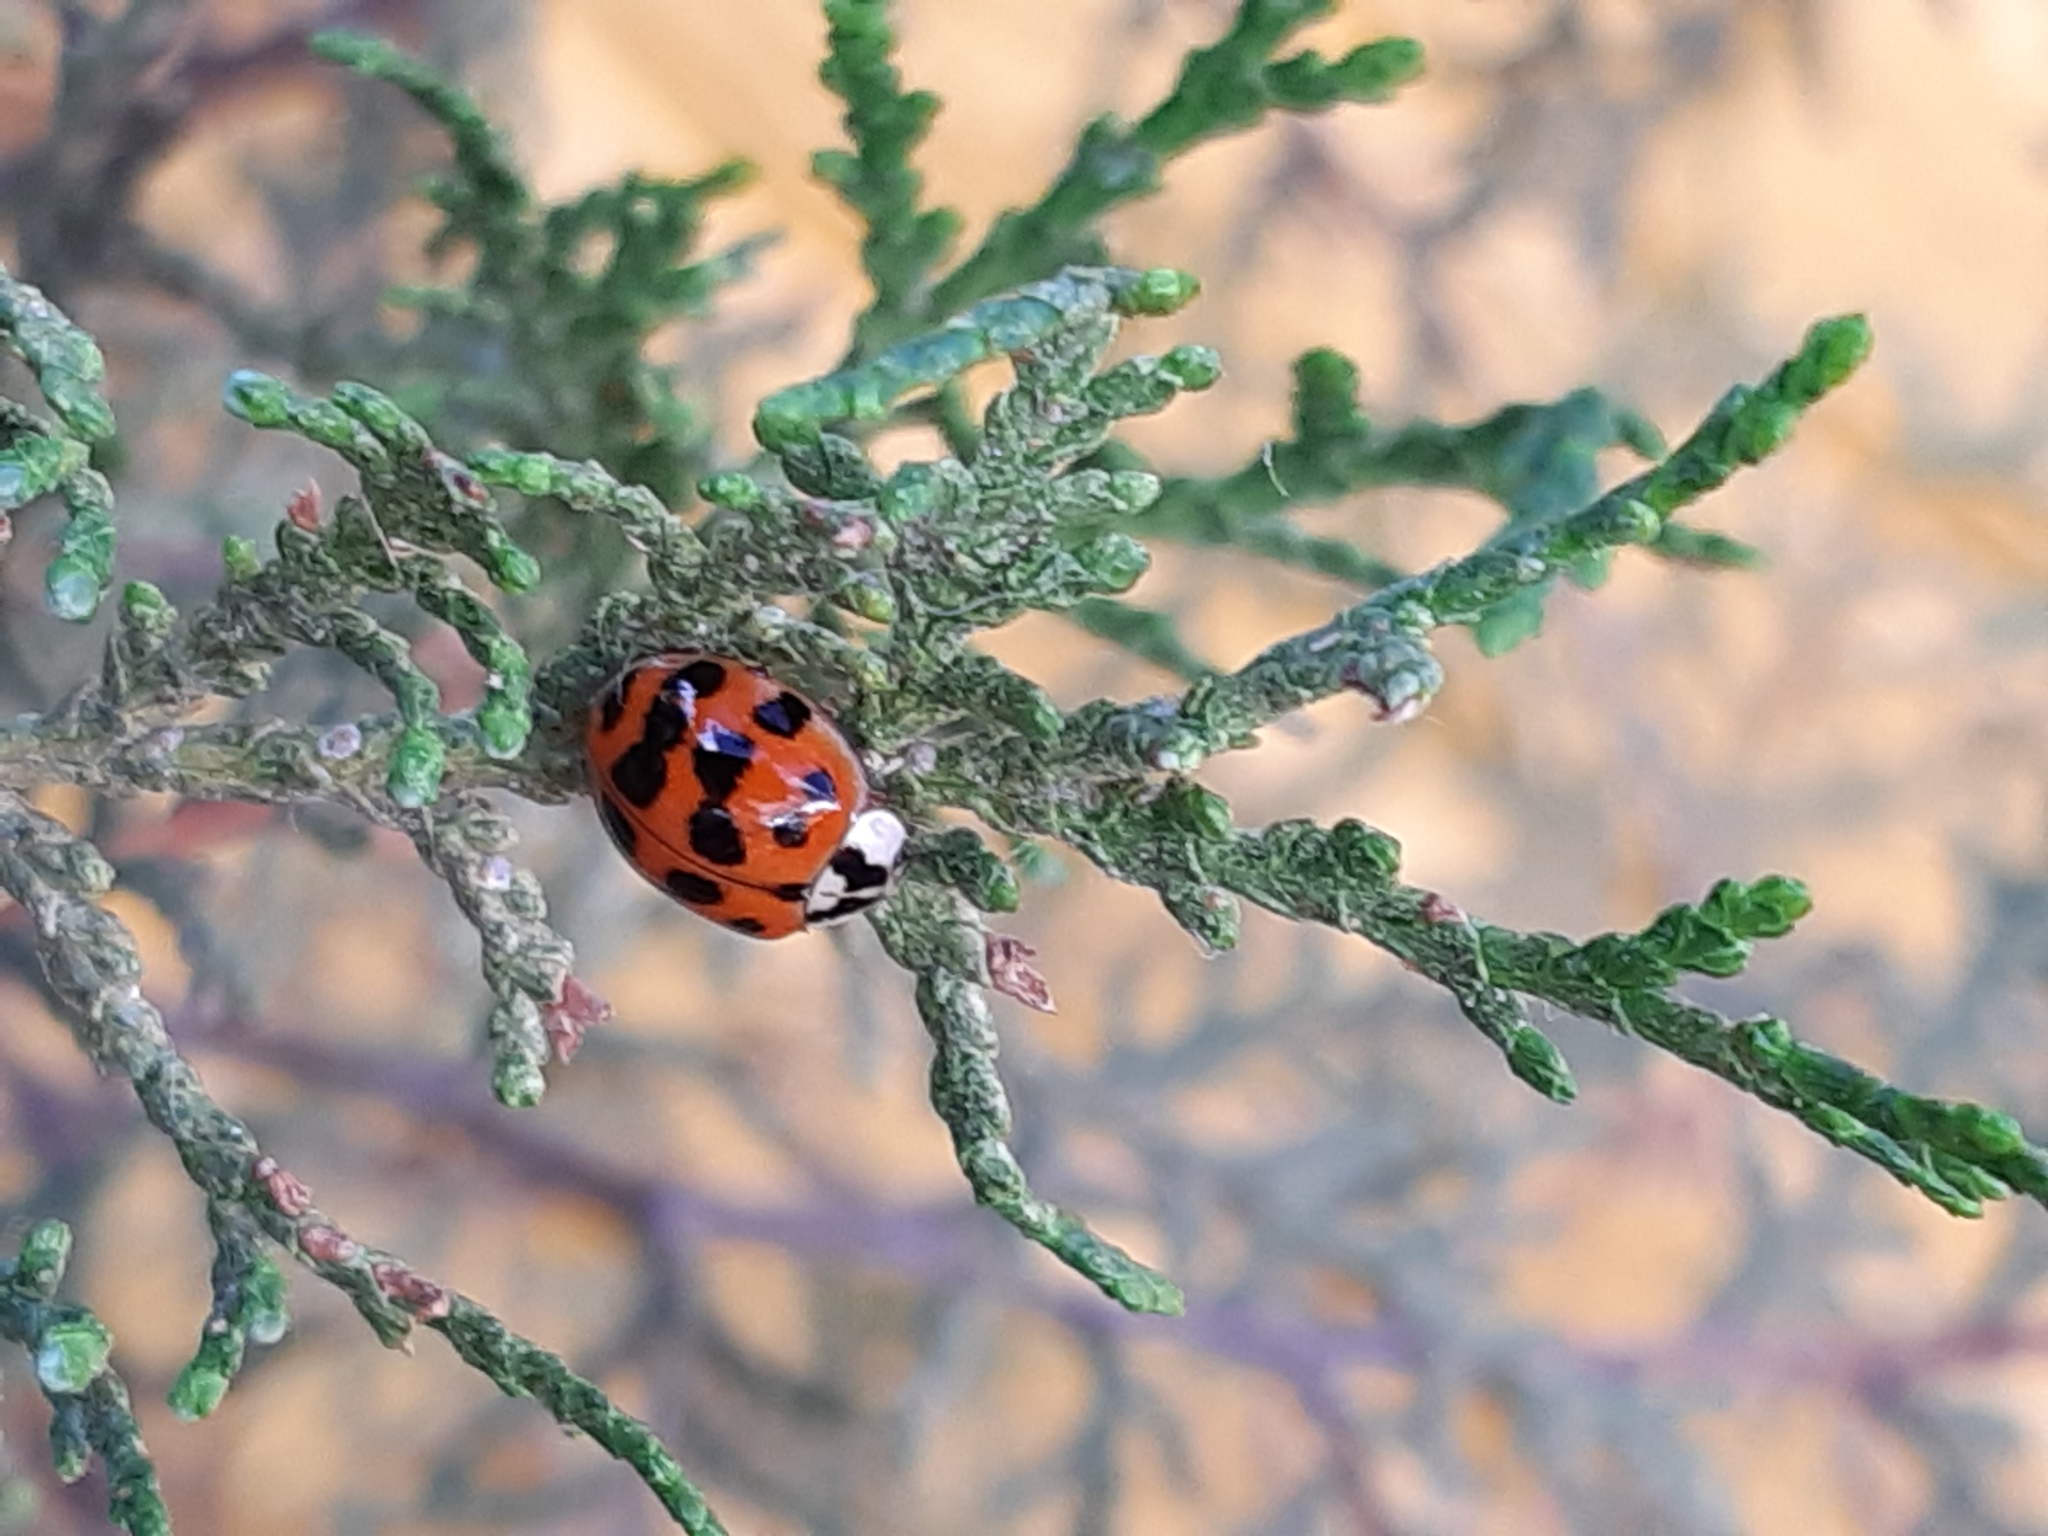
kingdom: Animalia
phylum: Arthropoda
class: Insecta
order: Coleoptera
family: Coccinellidae
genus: Harmonia
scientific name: Harmonia axyridis
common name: Harlequin ladybird
